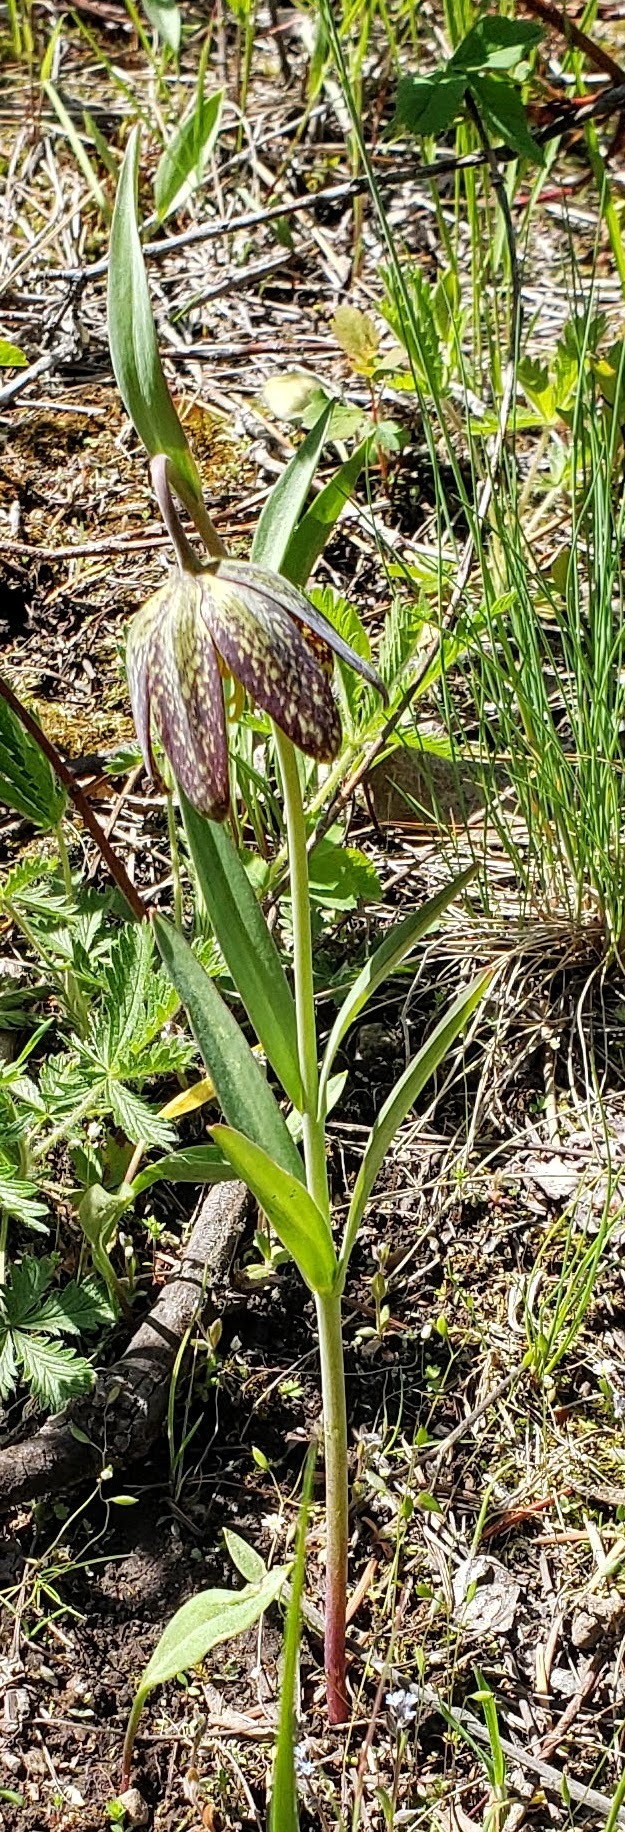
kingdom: Plantae
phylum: Tracheophyta
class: Liliopsida
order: Liliales
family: Liliaceae
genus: Fritillaria
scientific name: Fritillaria affinis
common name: Ojai fritillary
